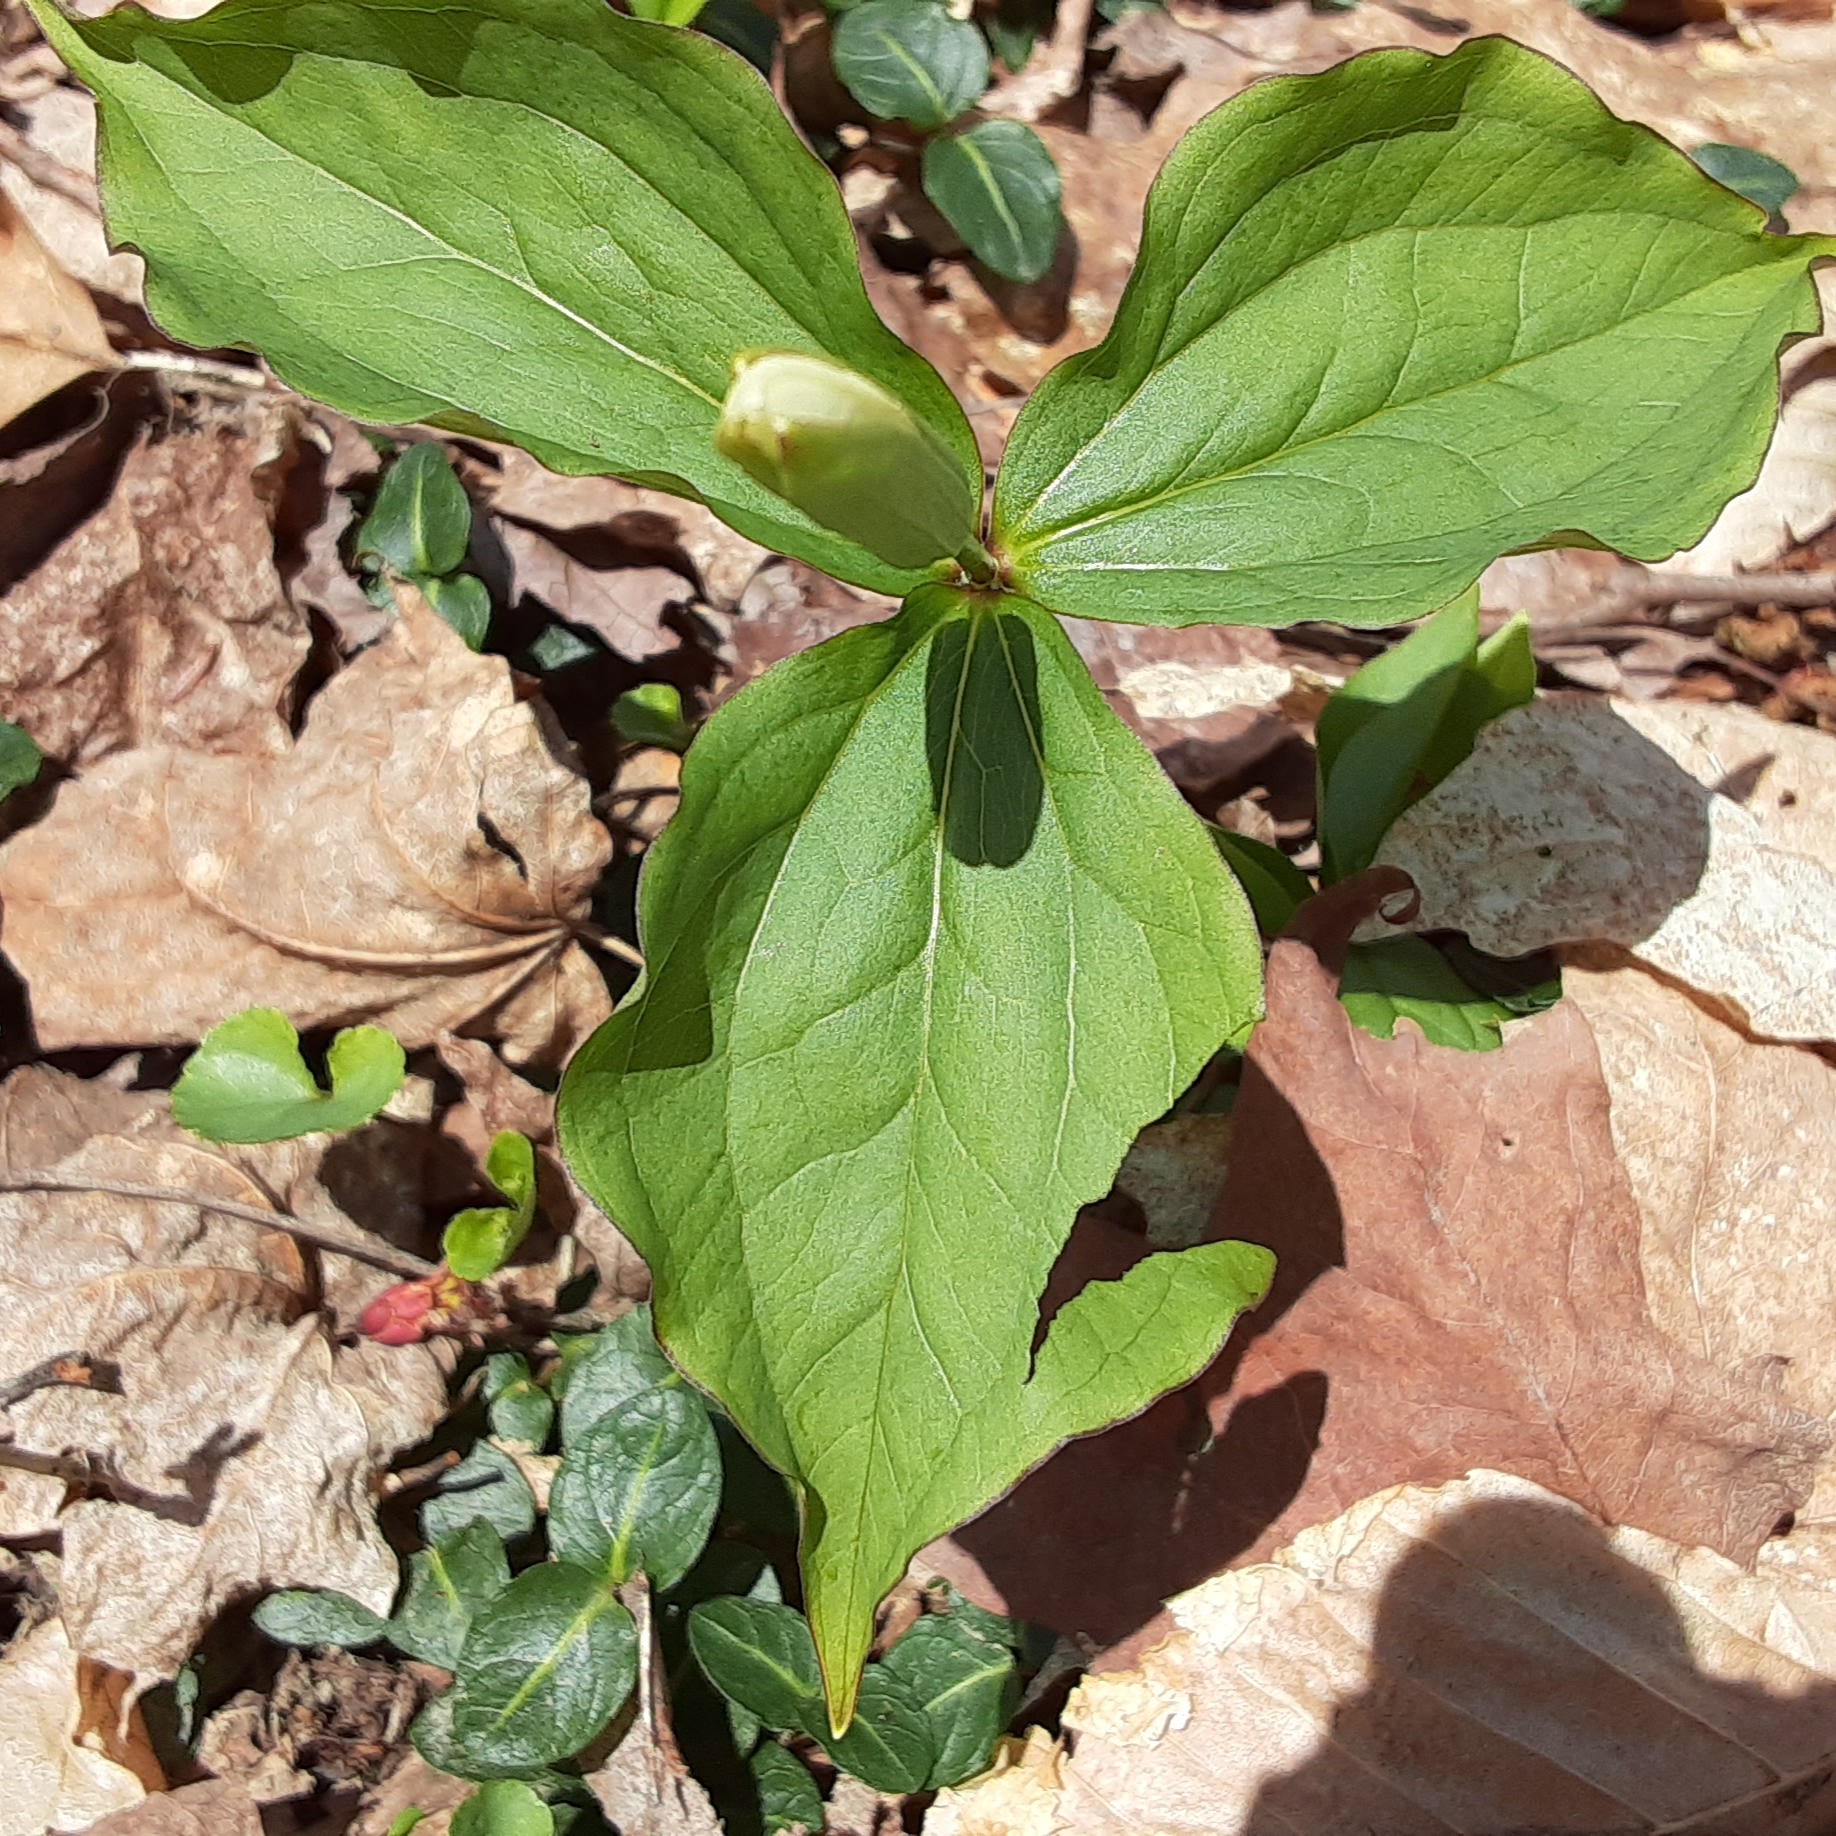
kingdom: Plantae
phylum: Tracheophyta
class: Liliopsida
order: Liliales
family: Melanthiaceae
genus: Trillium
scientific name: Trillium grandiflorum
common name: Great white trillium
